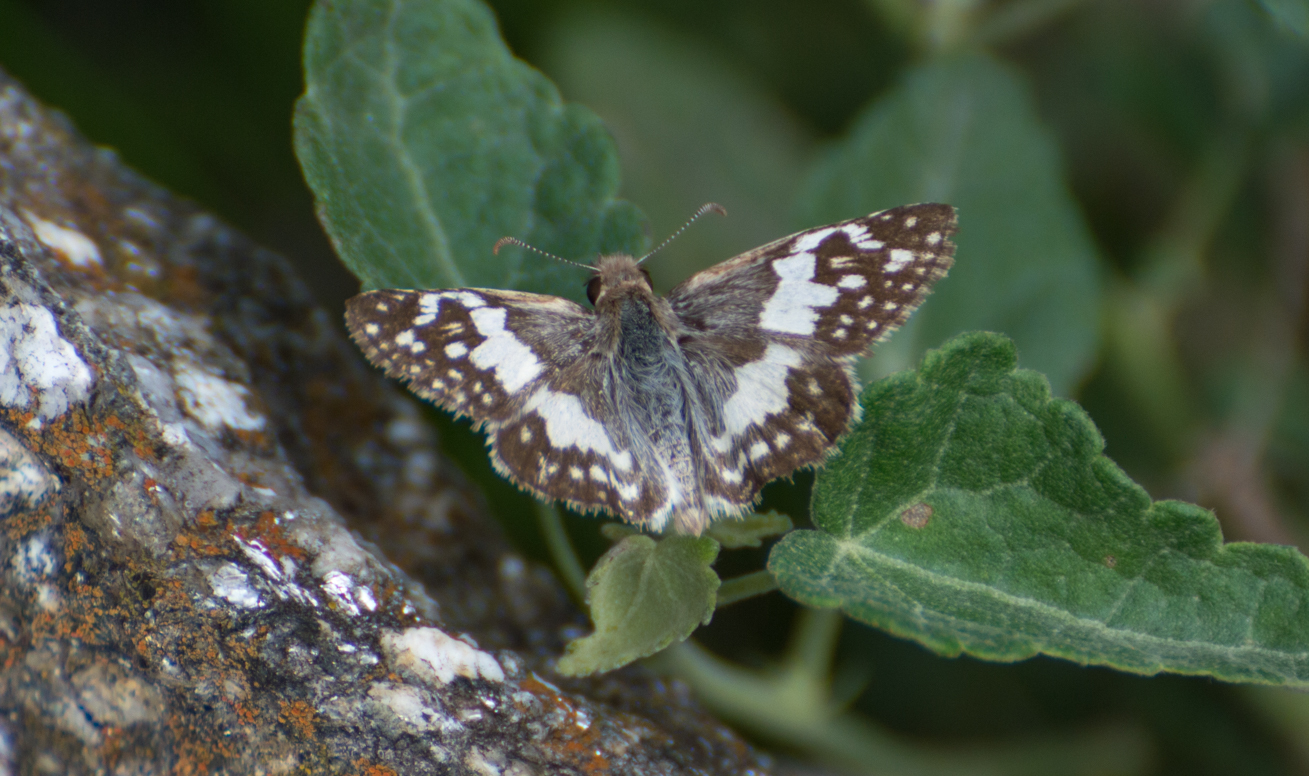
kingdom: Animalia
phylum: Arthropoda
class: Insecta
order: Lepidoptera
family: Hesperiidae
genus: Heliopyrgus
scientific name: Heliopyrgus domicella
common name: Erichson's white skipper
